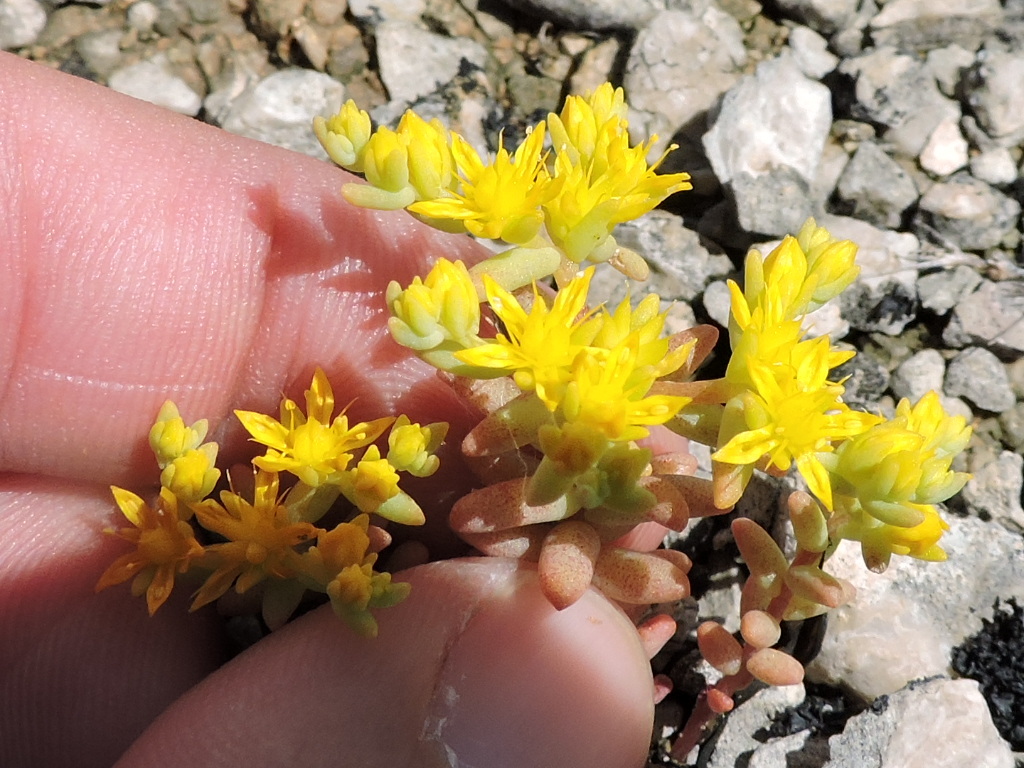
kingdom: Plantae
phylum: Tracheophyta
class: Magnoliopsida
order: Saxifragales
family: Crassulaceae
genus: Sedum
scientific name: Sedum nuttallii
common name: Yellow stonecrop
